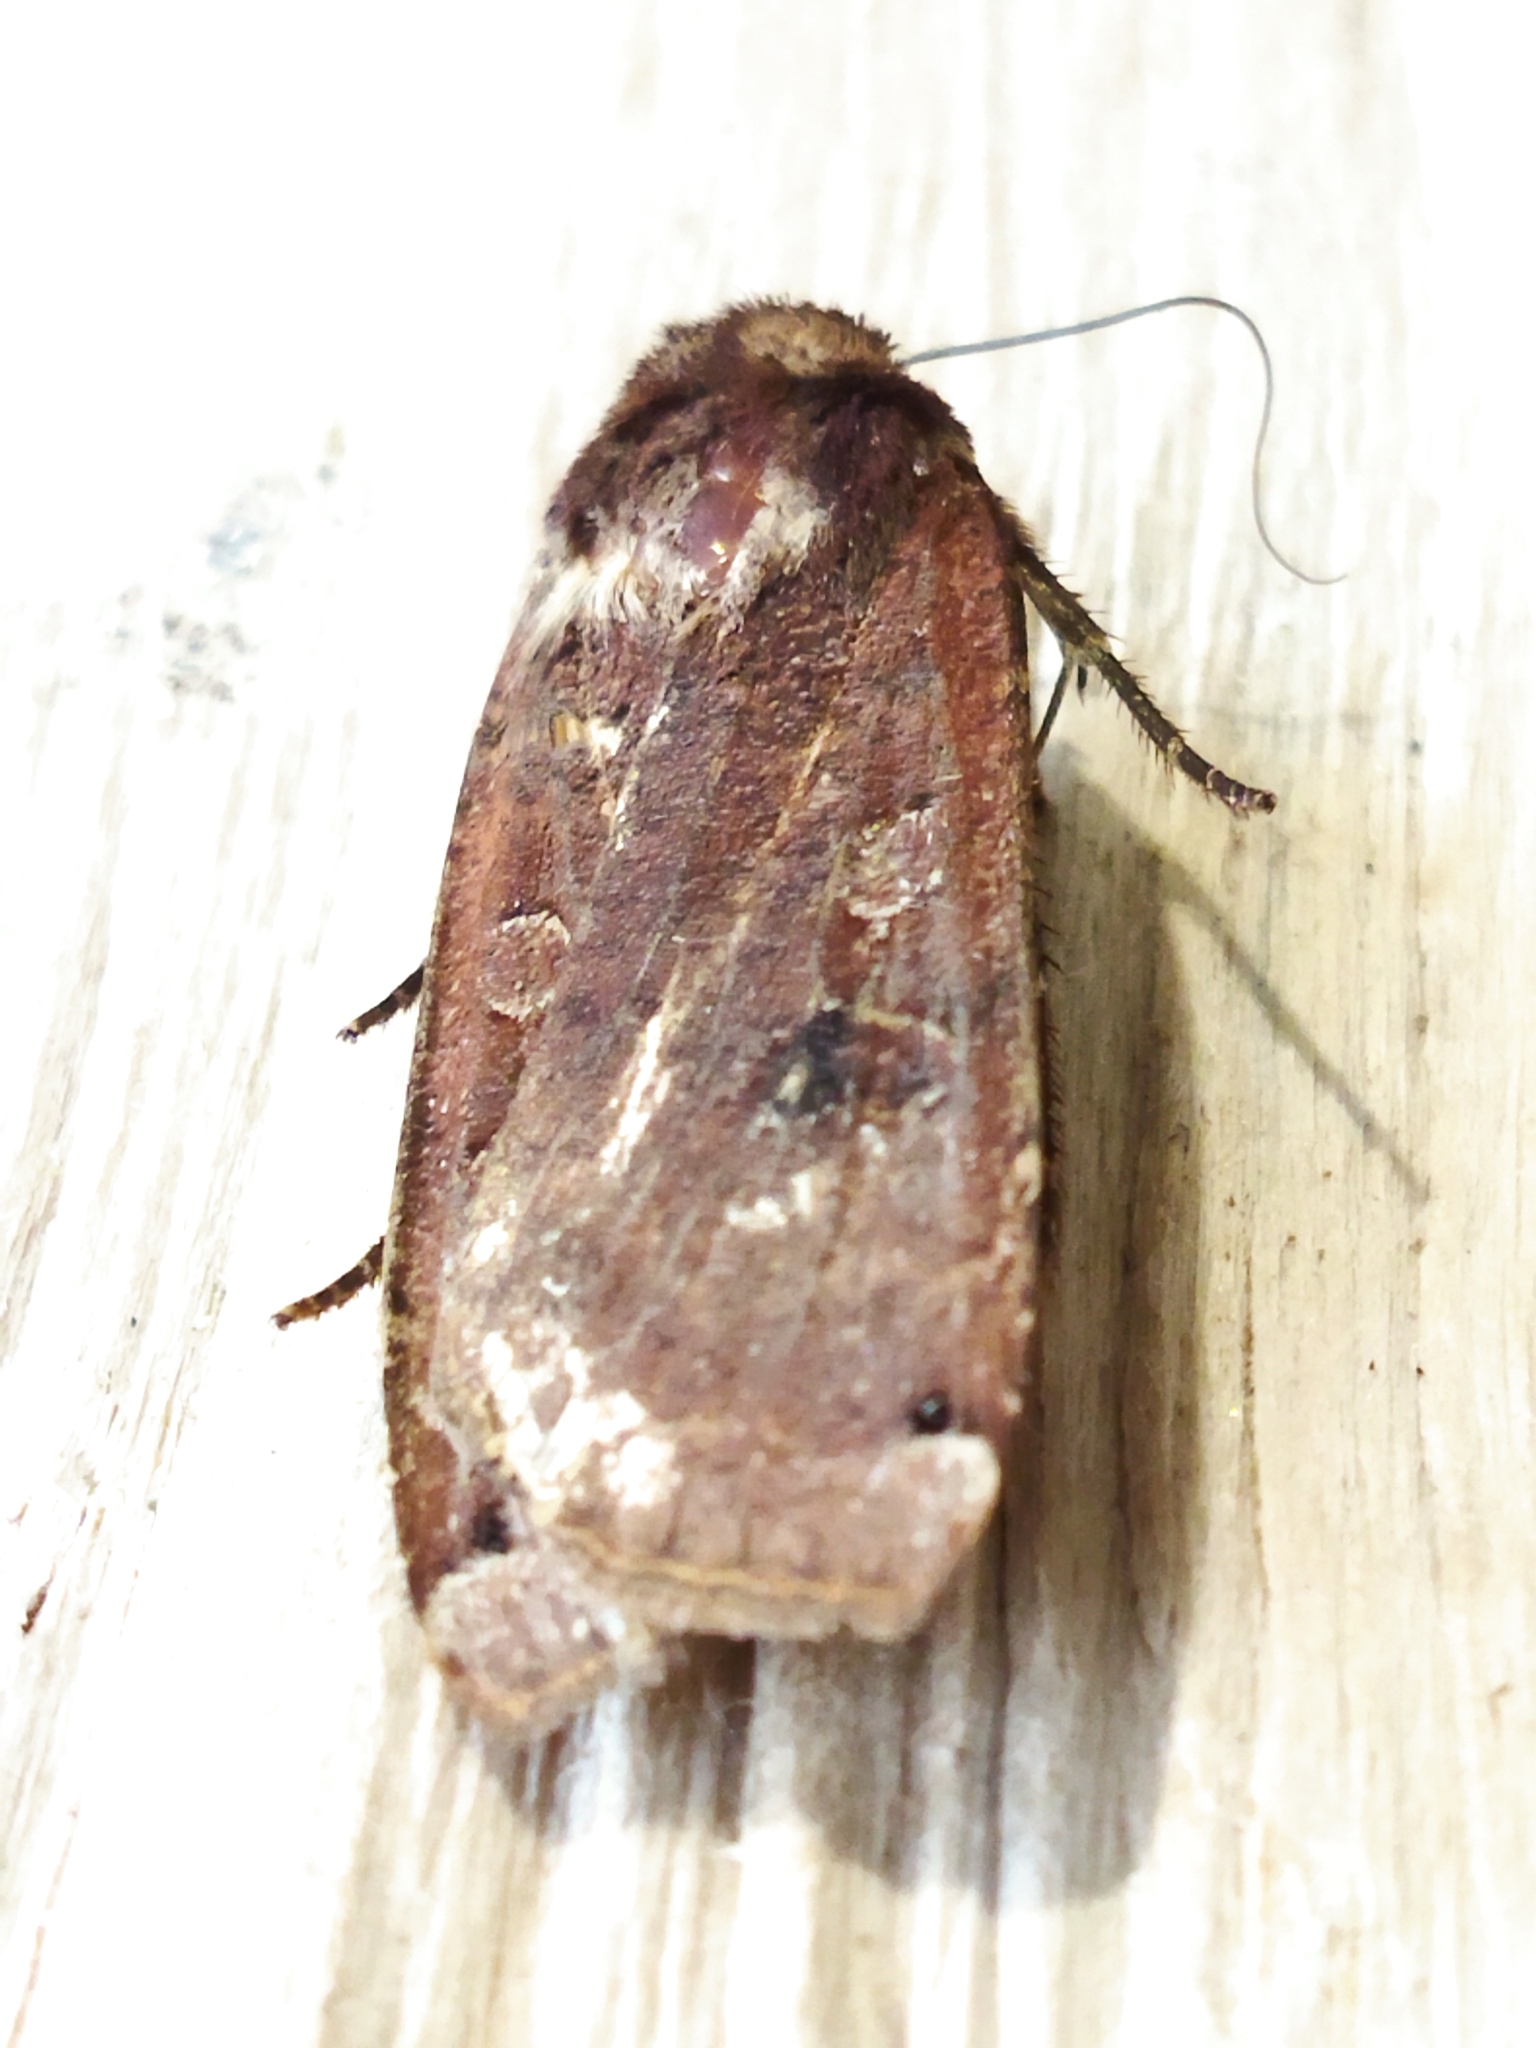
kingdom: Animalia
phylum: Arthropoda
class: Insecta
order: Lepidoptera
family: Noctuidae
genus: Noctua
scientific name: Noctua pronuba
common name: Large yellow underwing
